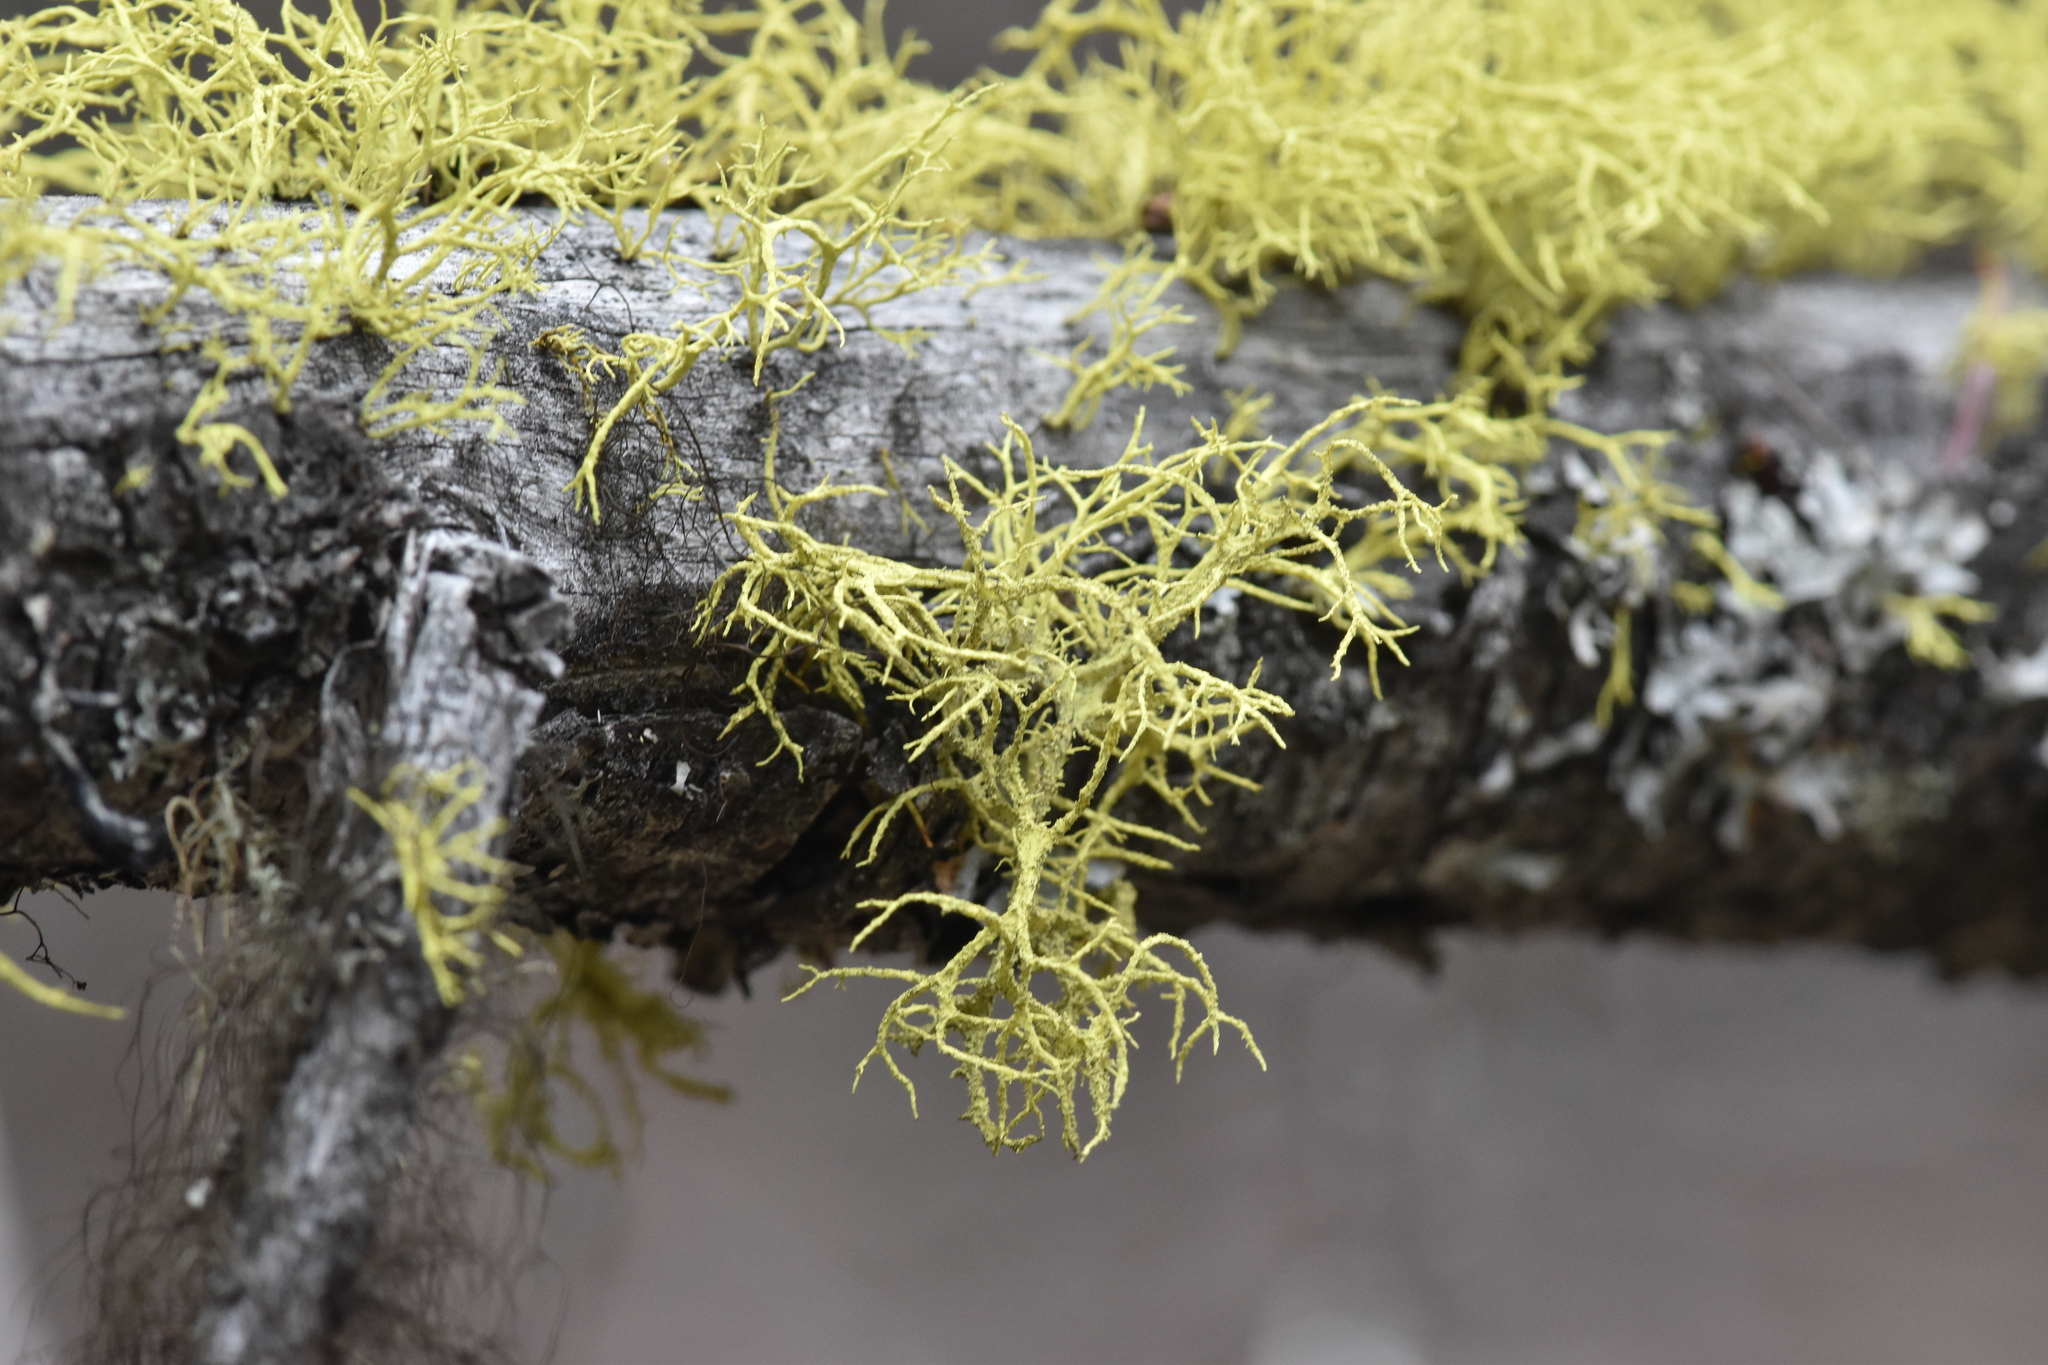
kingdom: Fungi
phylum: Ascomycota
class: Lecanoromycetes
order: Lecanorales
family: Parmeliaceae
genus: Letharia
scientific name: Letharia vulpina
